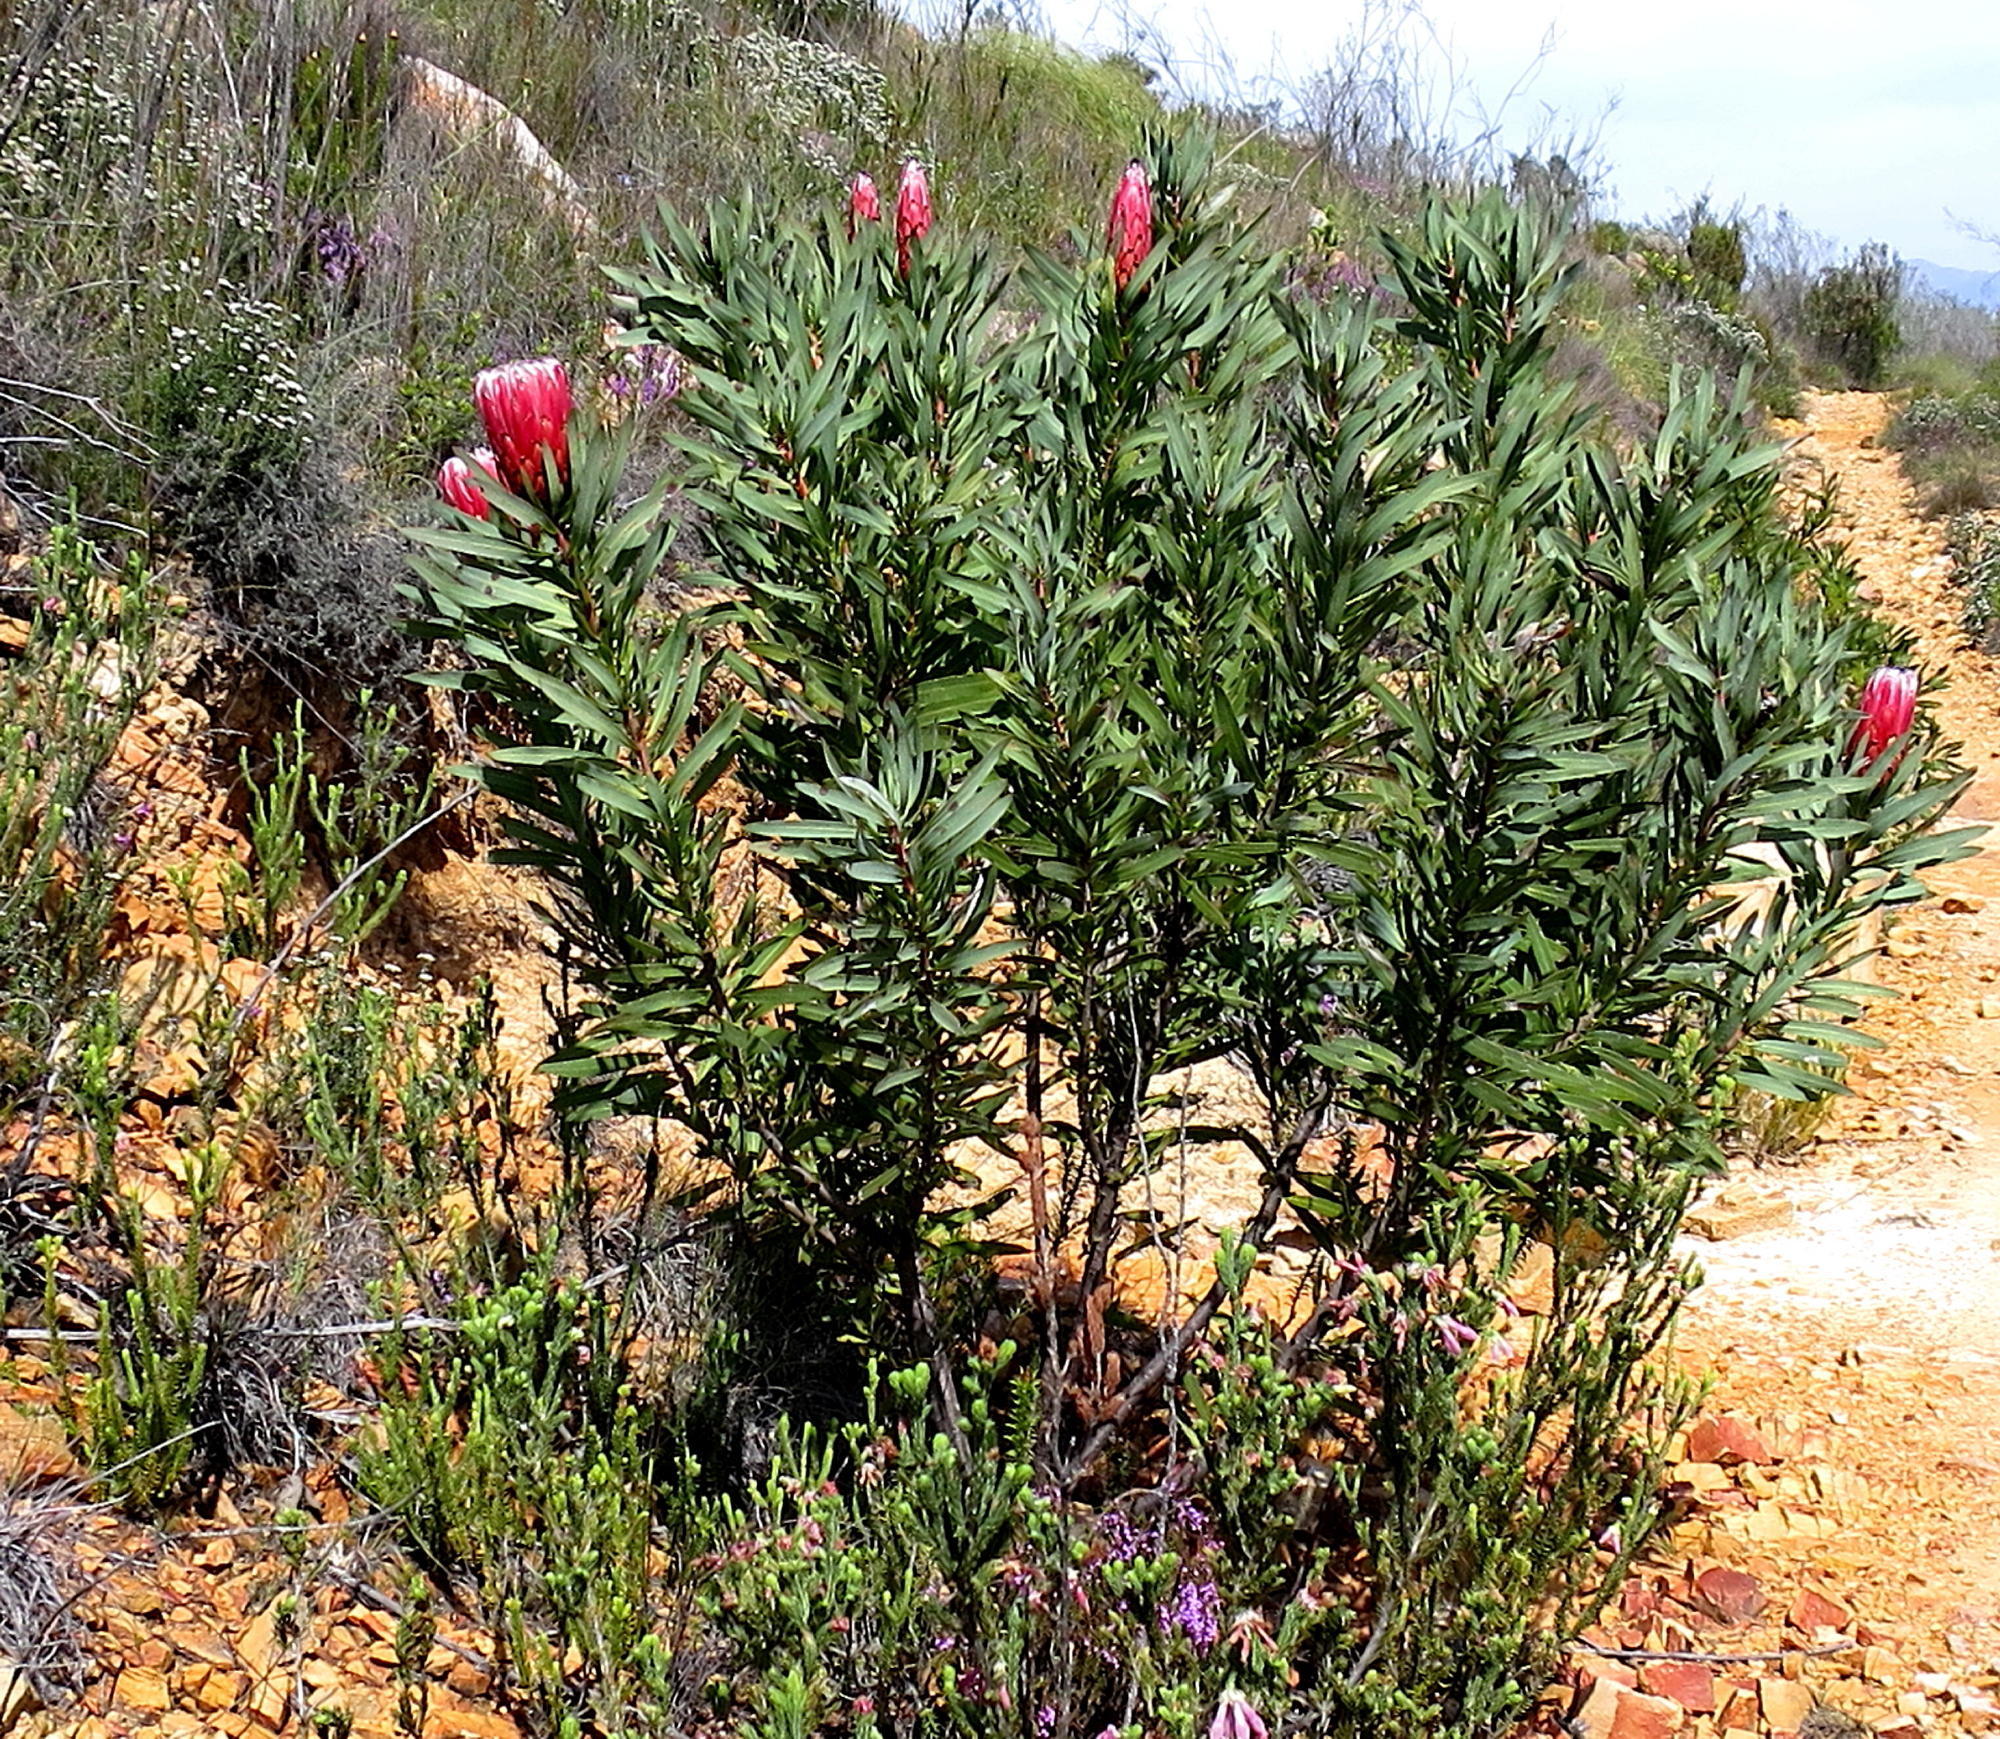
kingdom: Plantae
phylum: Tracheophyta
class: Magnoliopsida
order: Proteales
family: Proteaceae
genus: Protea
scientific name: Protea neriifolia
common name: Blue sugarbush
